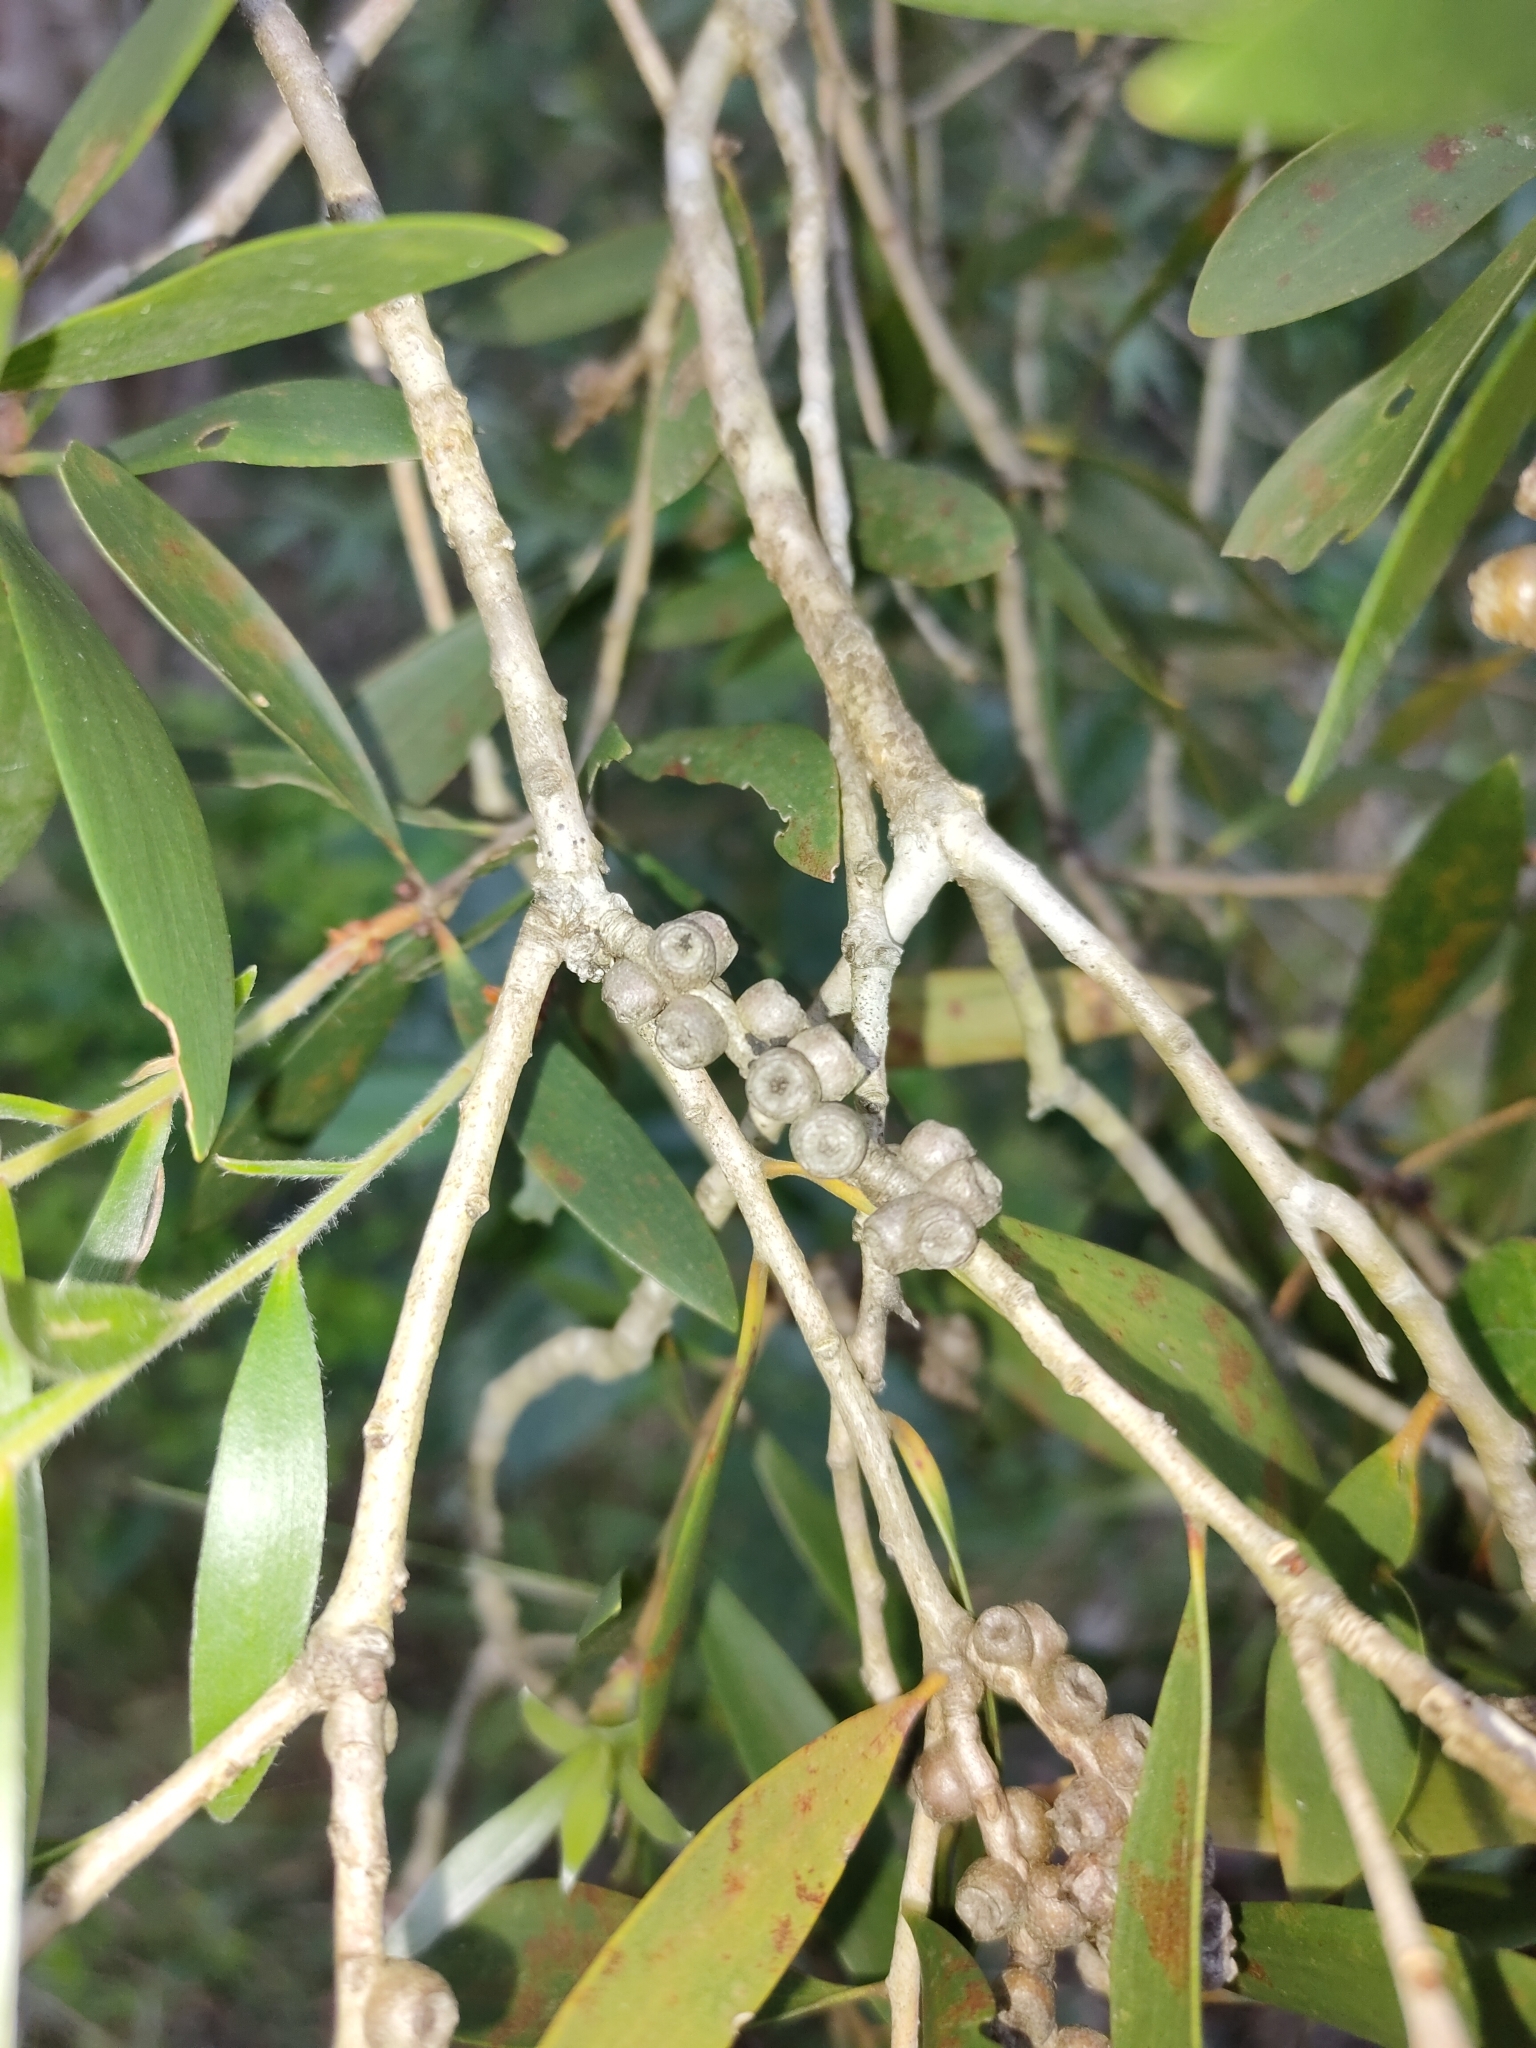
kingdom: Plantae
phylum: Tracheophyta
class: Magnoliopsida
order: Myrtales
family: Myrtaceae
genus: Melaleuca
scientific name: Melaleuca quinquenervia
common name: Punktree
